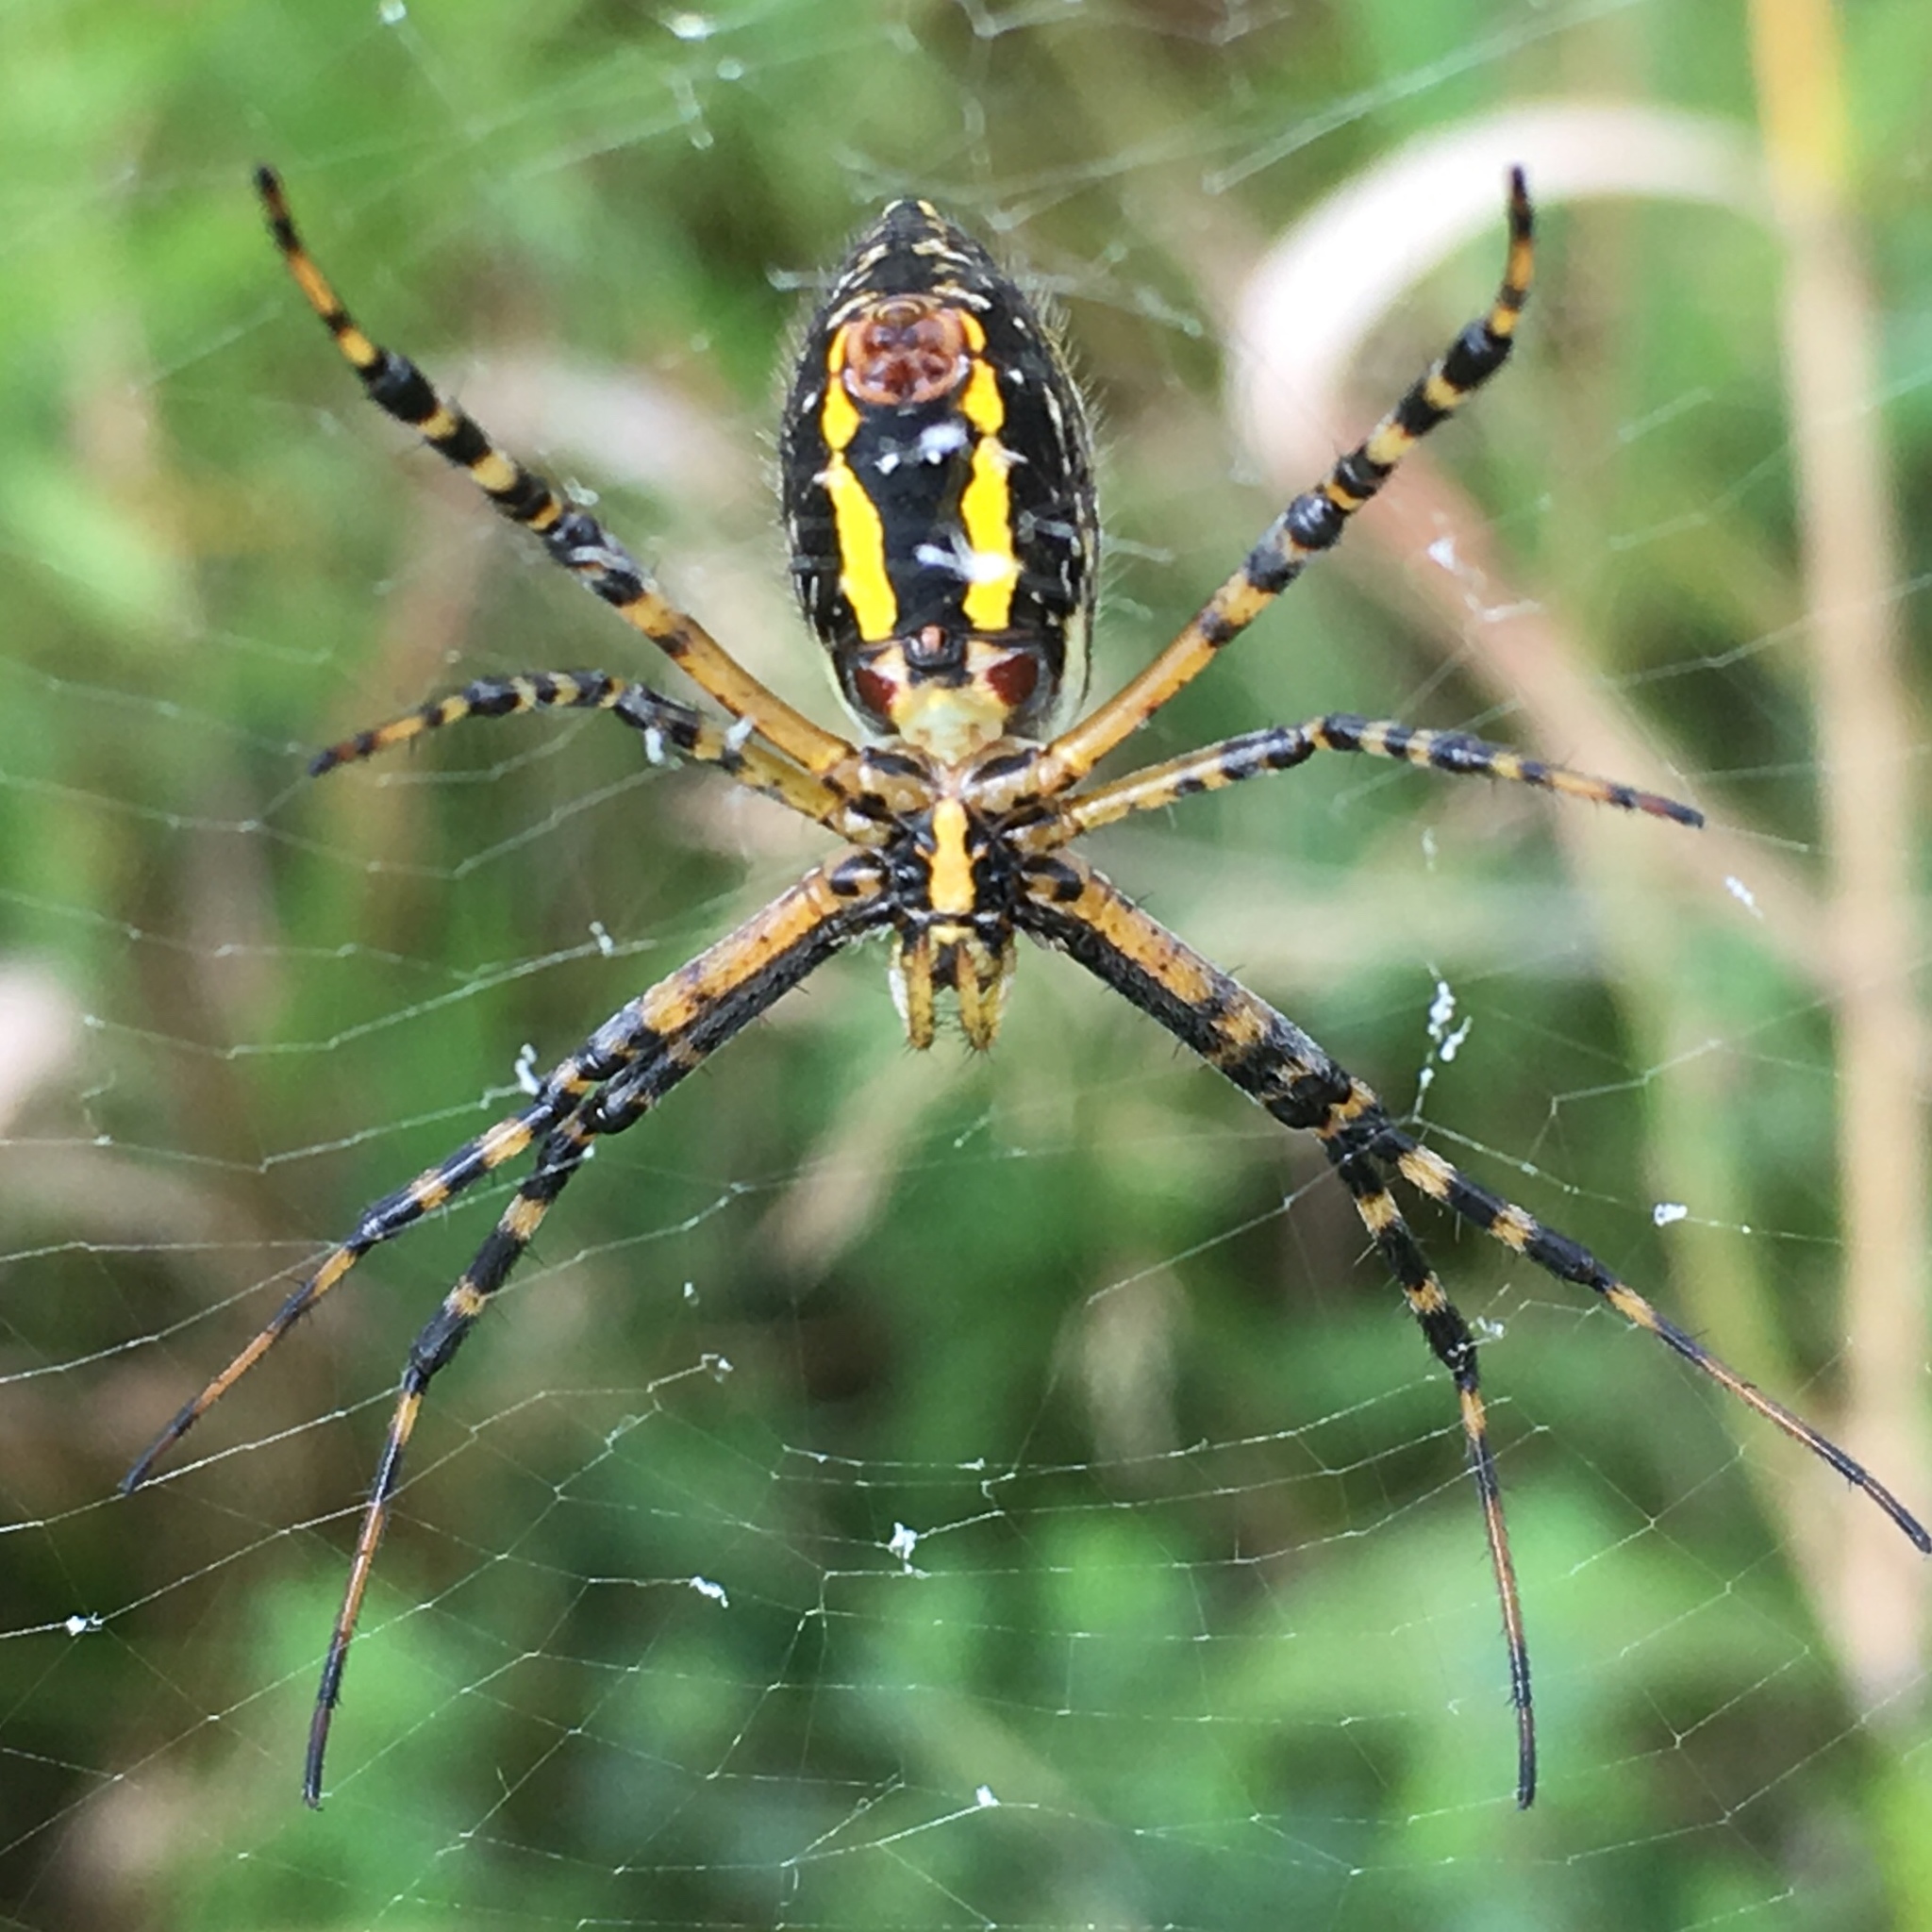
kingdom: Animalia
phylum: Arthropoda
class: Arachnida
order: Araneae
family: Araneidae
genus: Argiope
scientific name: Argiope trifasciata
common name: Banded garden spider
